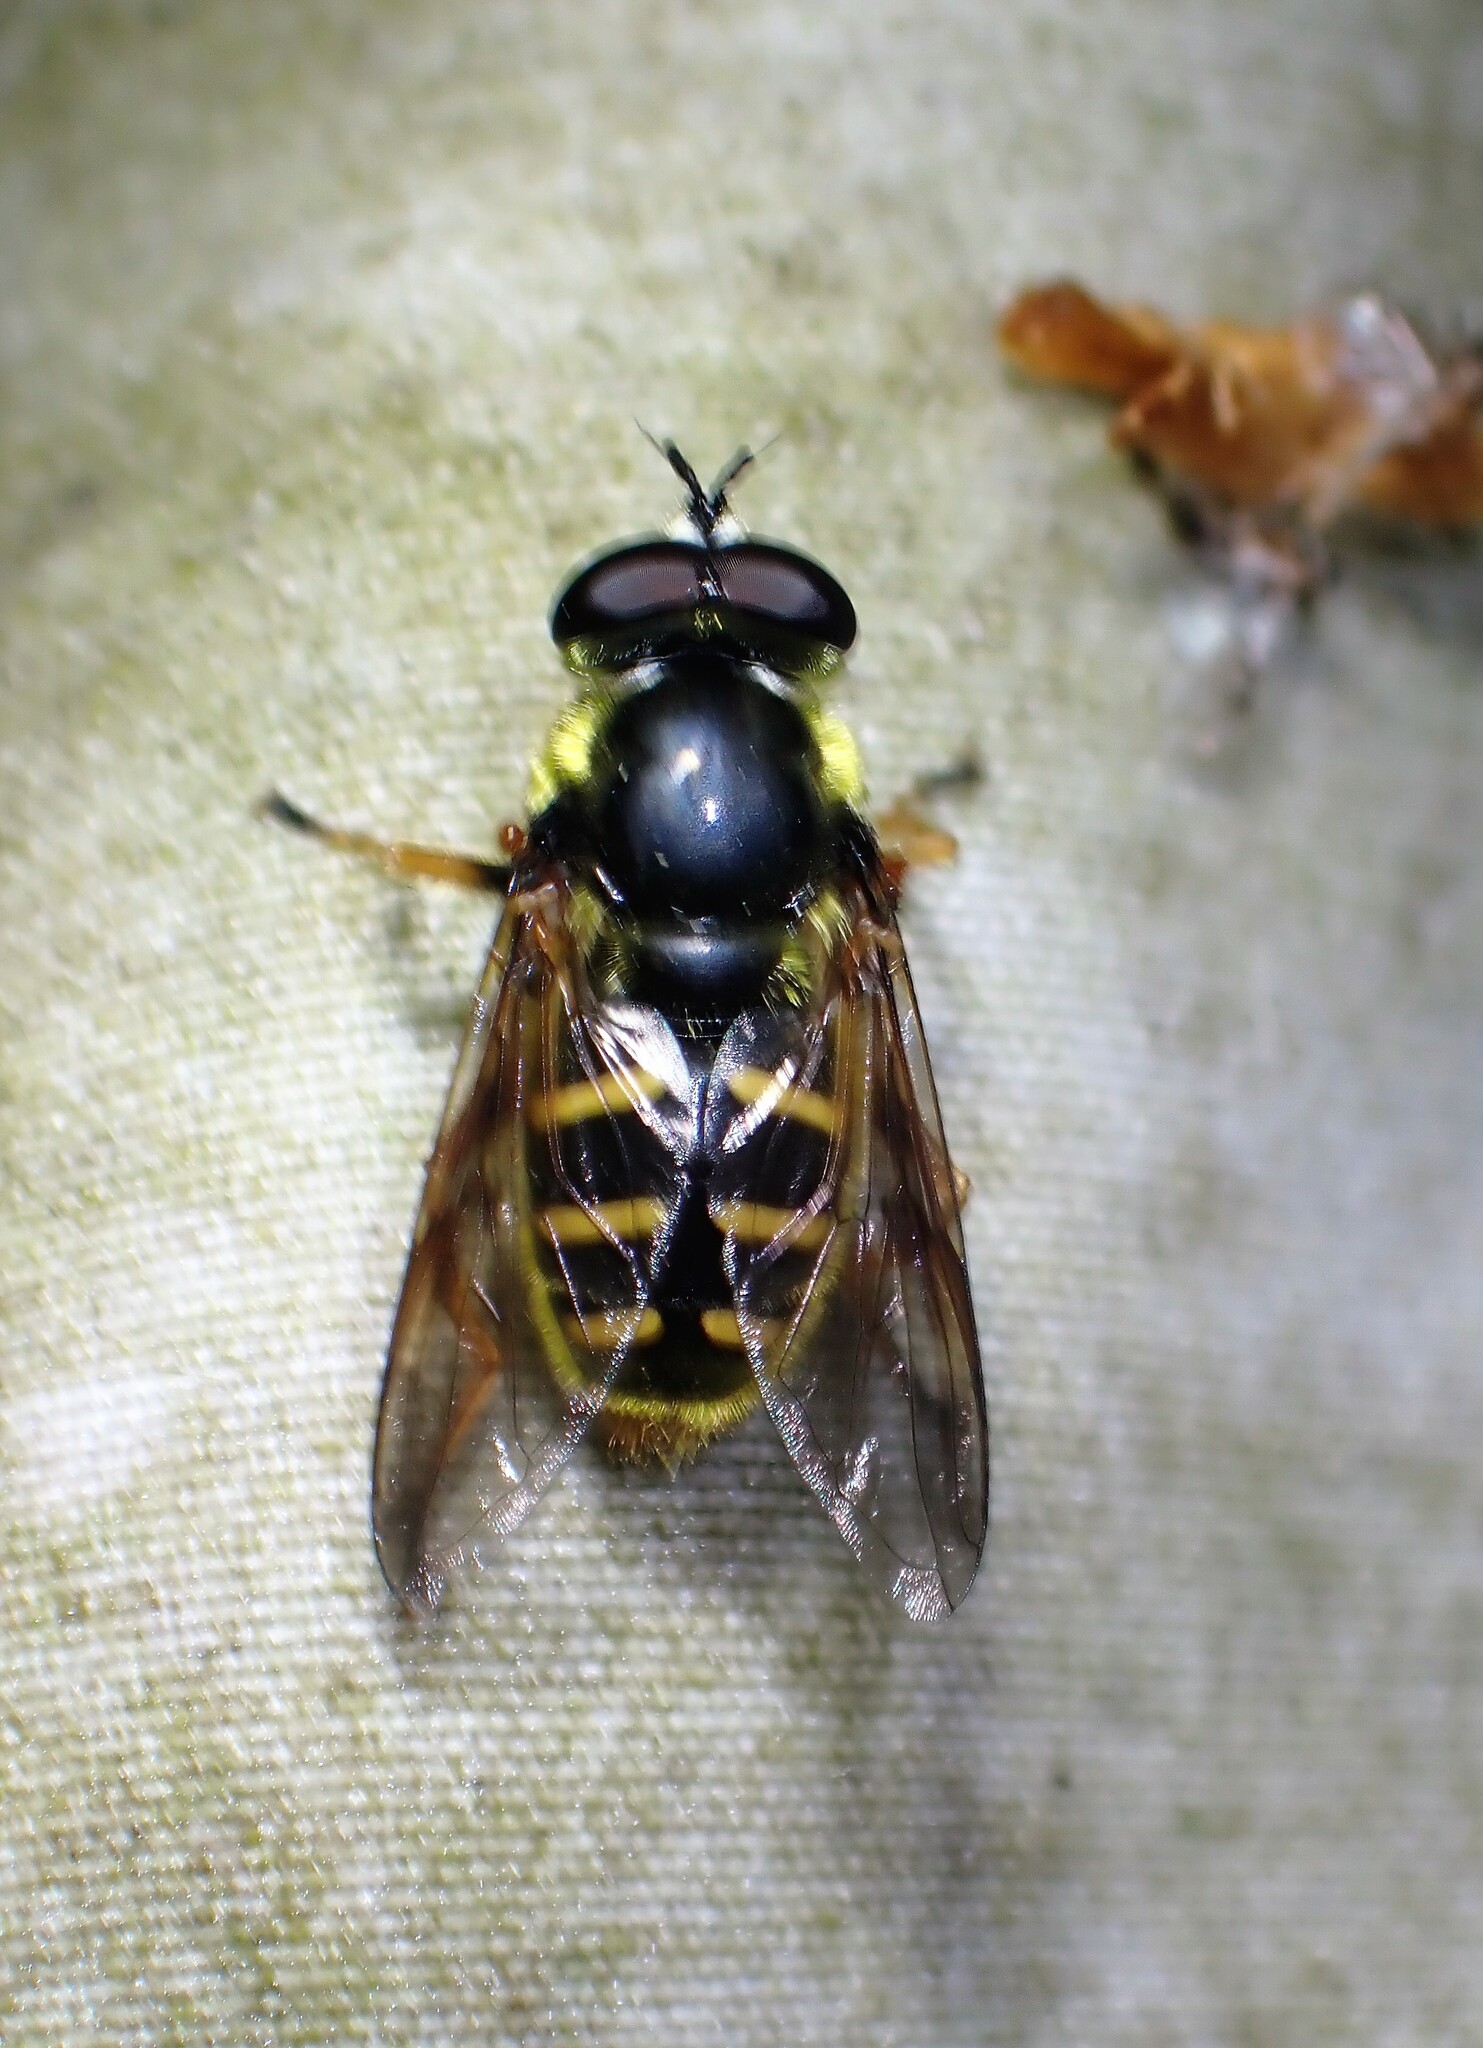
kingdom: Animalia
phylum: Arthropoda
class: Insecta
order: Diptera
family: Syrphidae
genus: Sericomyia
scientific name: Sericomyia chrysotoxoides
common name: Oblique-banded pond fly
